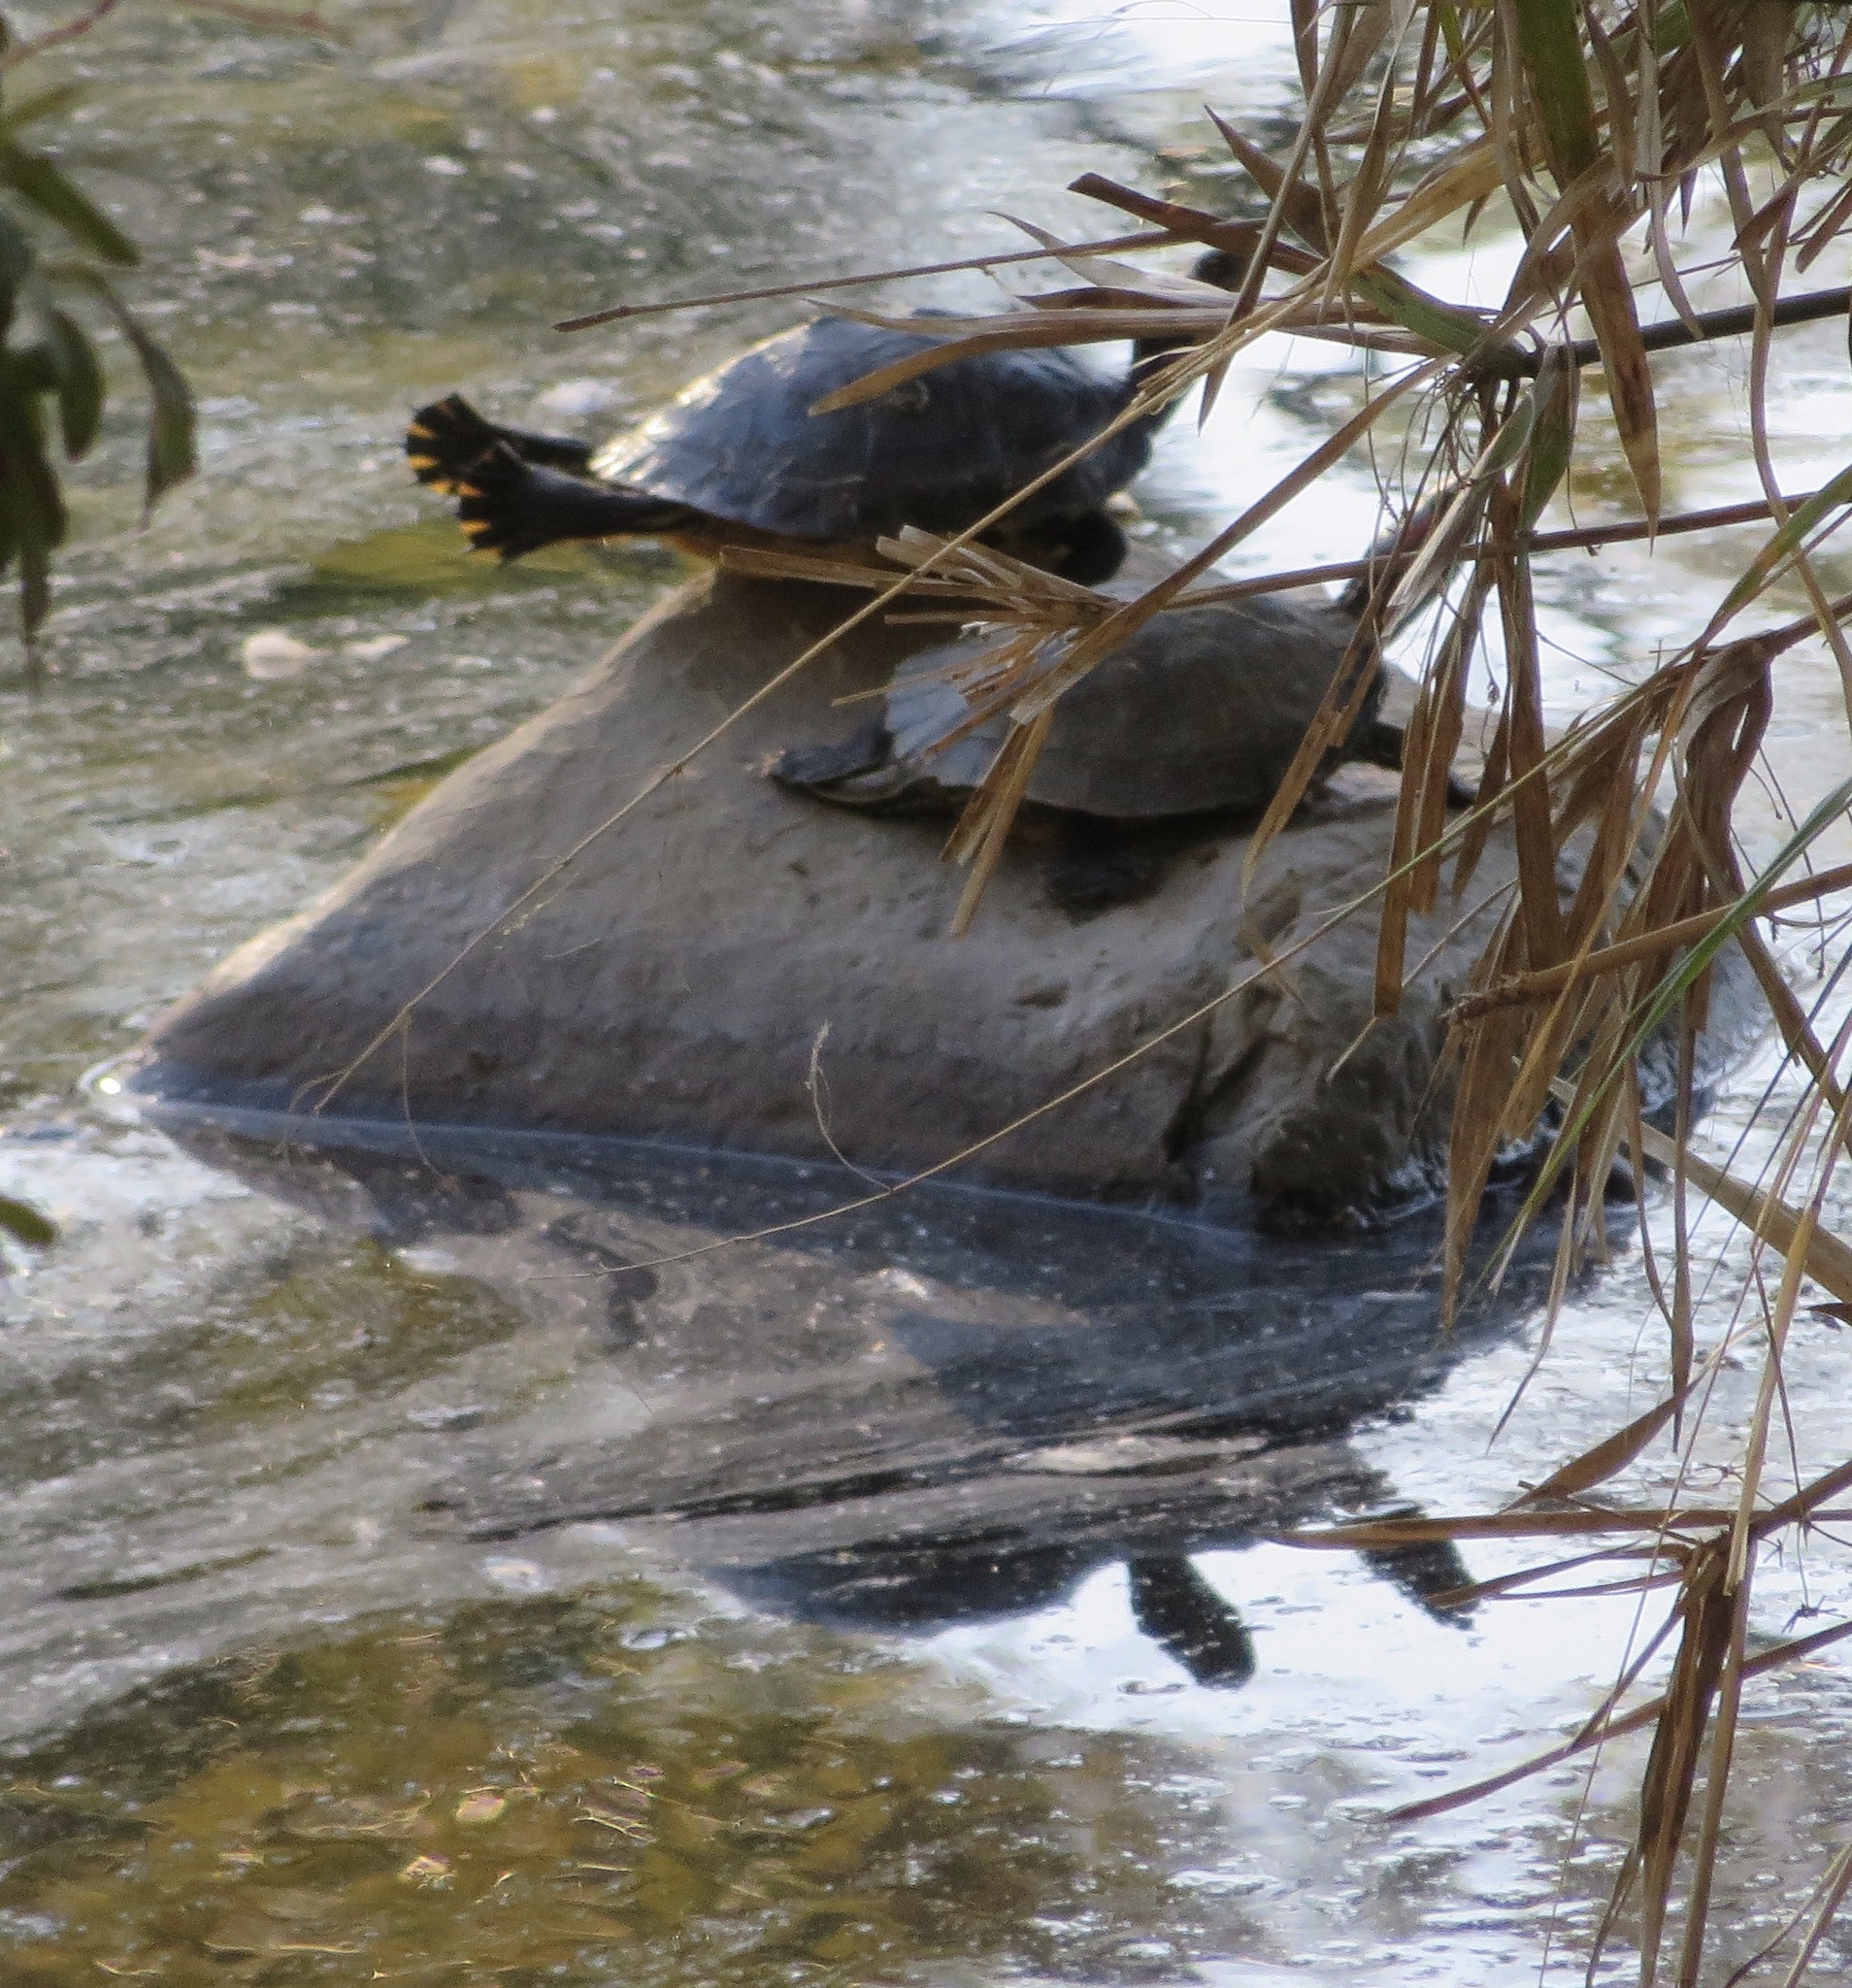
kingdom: Animalia
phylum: Chordata
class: Testudines
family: Emydidae
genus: Trachemys
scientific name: Trachemys scripta
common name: Slider
